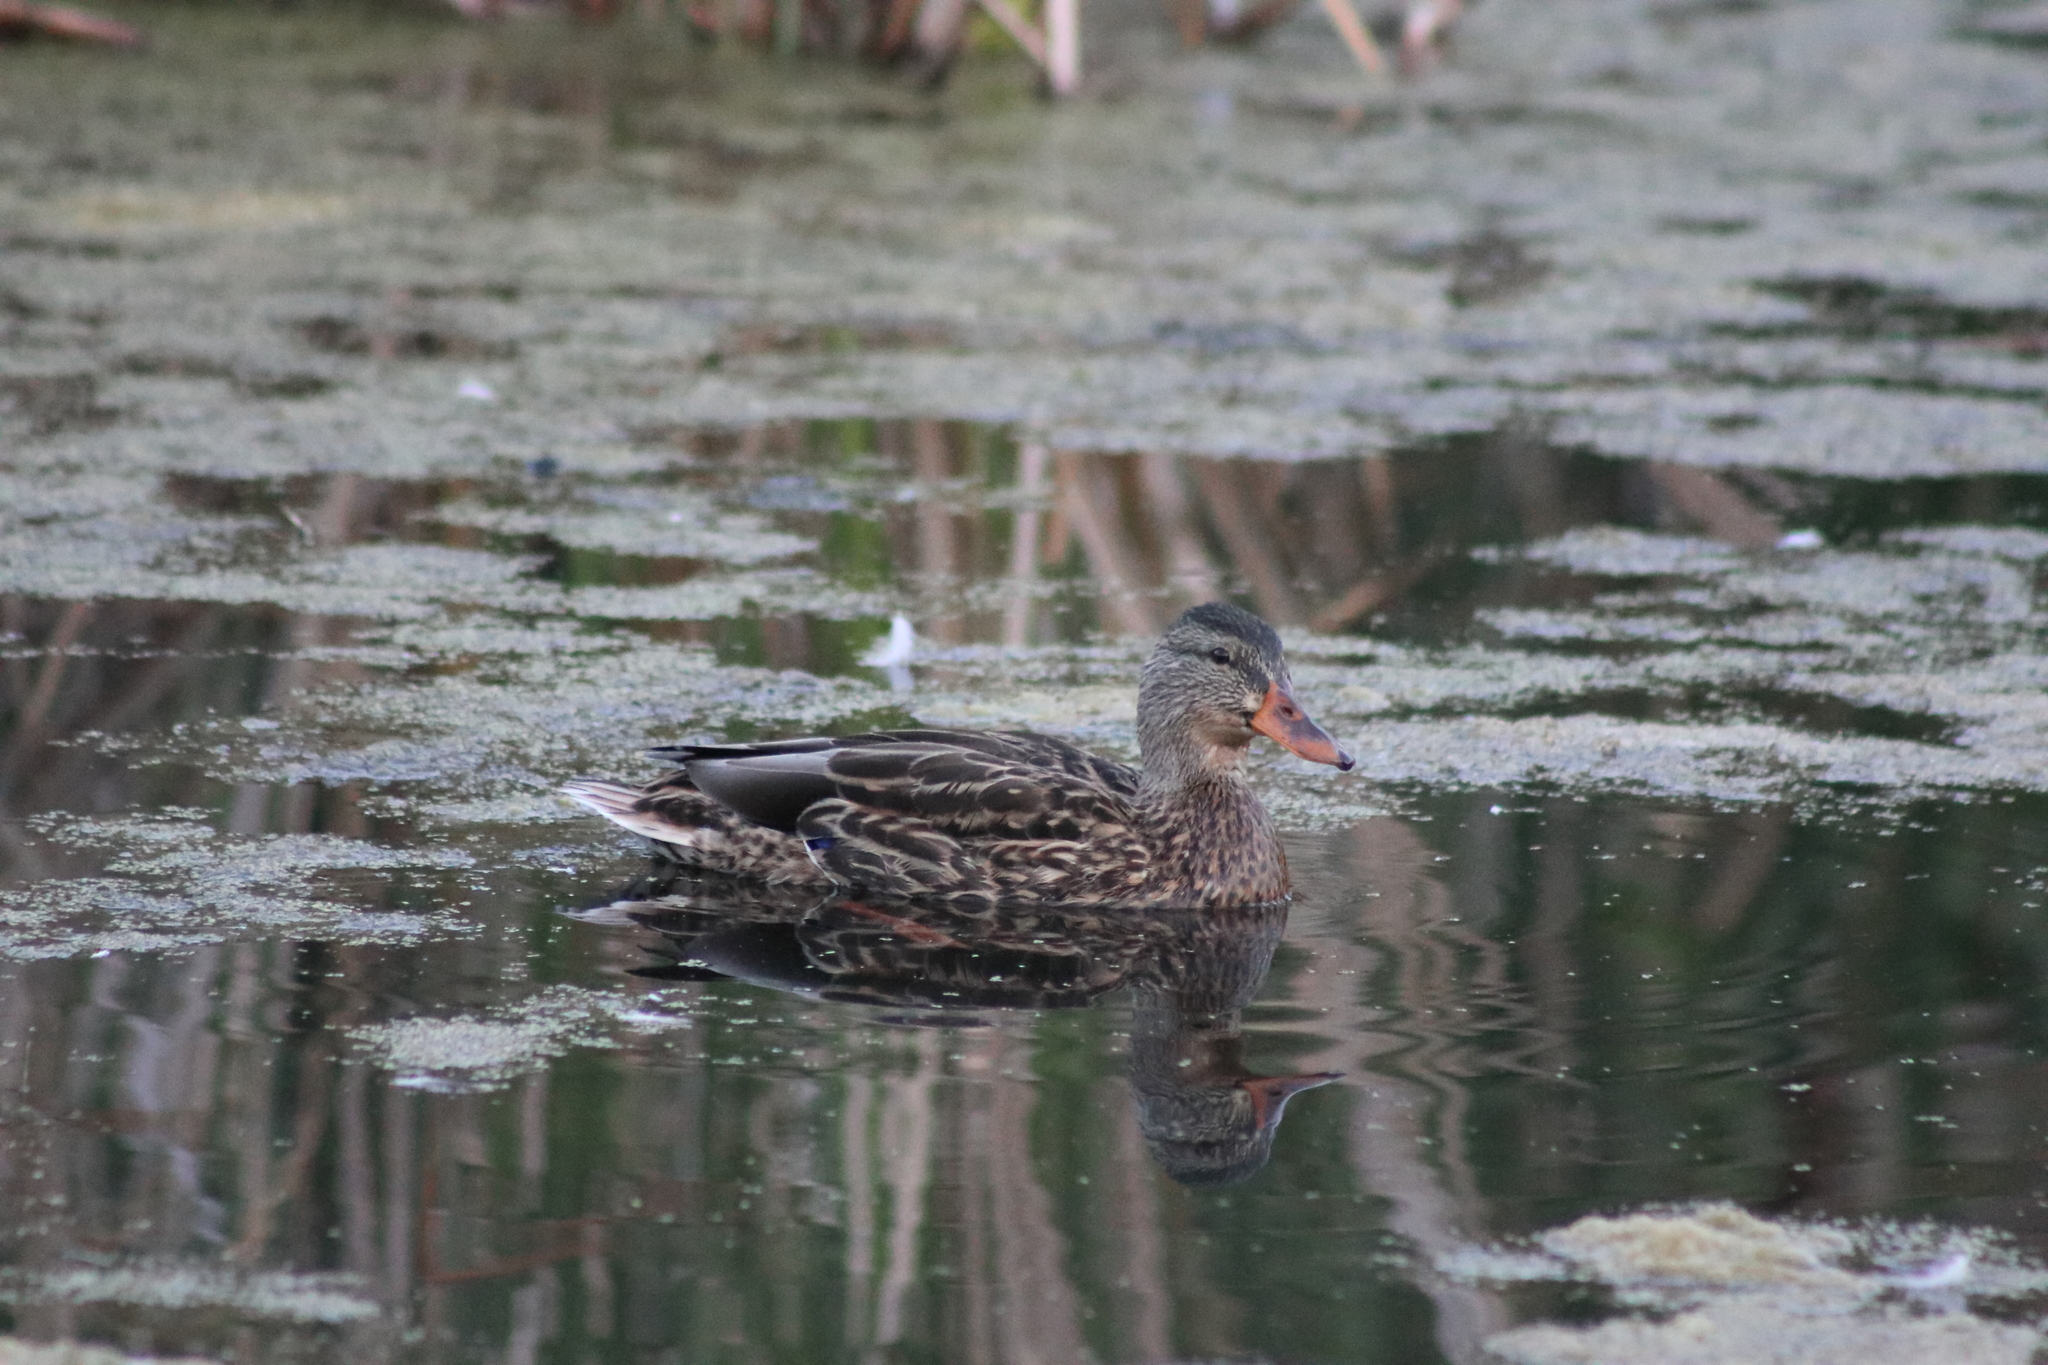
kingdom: Animalia
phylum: Chordata
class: Aves
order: Anseriformes
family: Anatidae
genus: Anas
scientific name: Anas platyrhynchos
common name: Mallard
